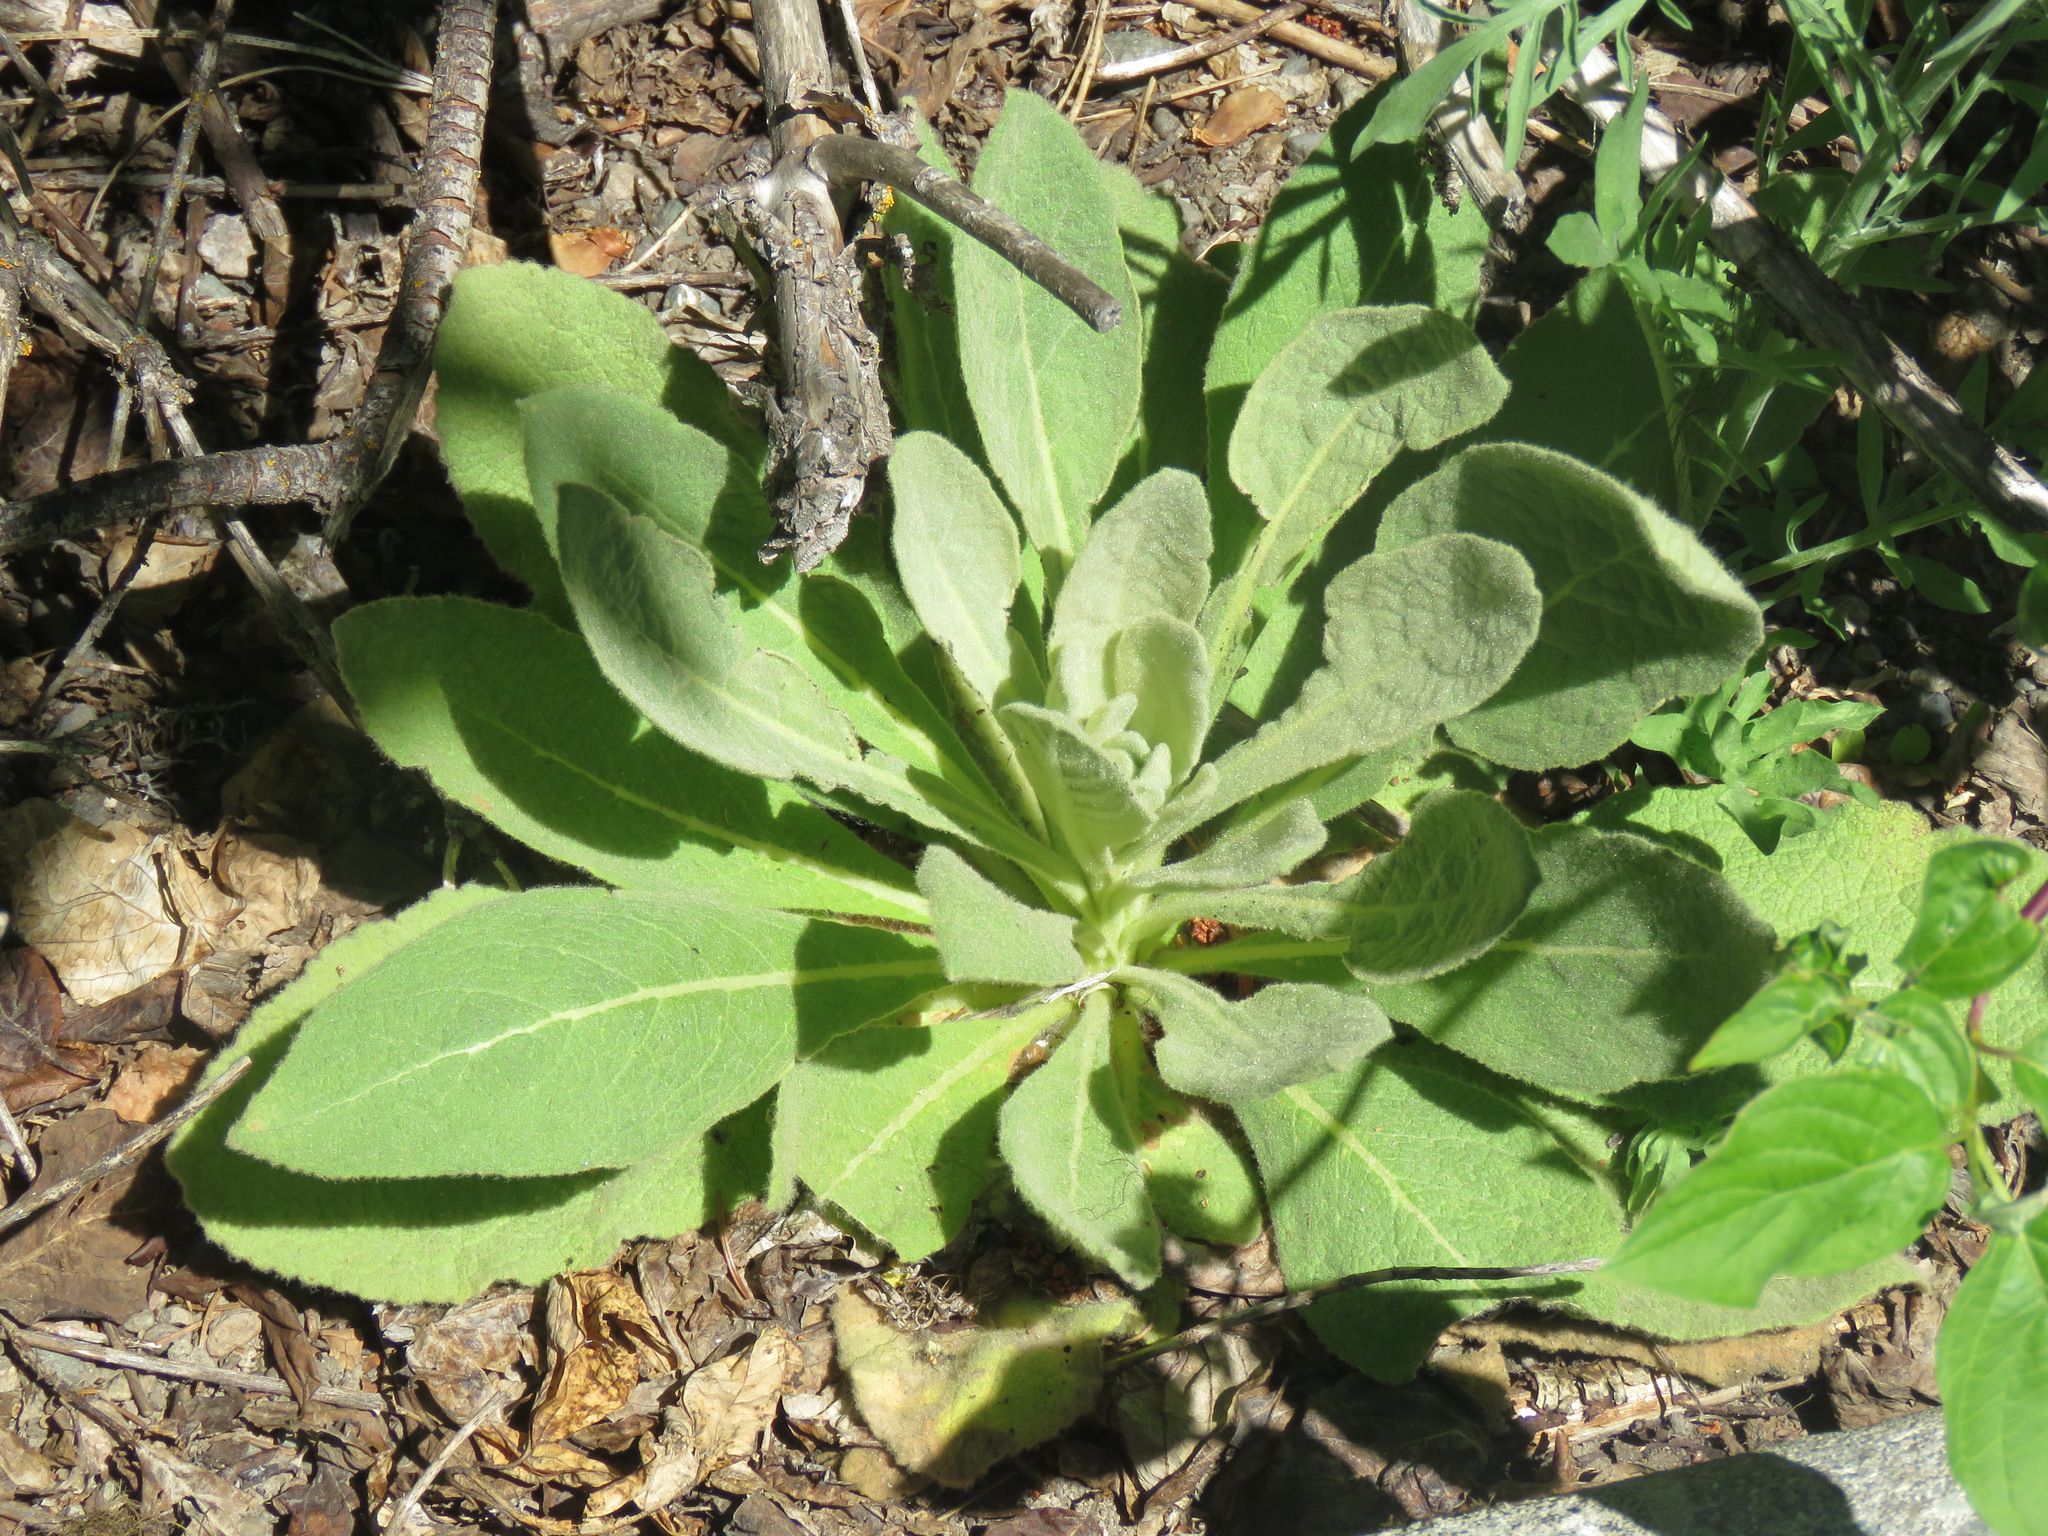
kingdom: Plantae
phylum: Tracheophyta
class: Magnoliopsida
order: Lamiales
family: Scrophulariaceae
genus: Verbascum
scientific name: Verbascum thapsus
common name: Common mullein
